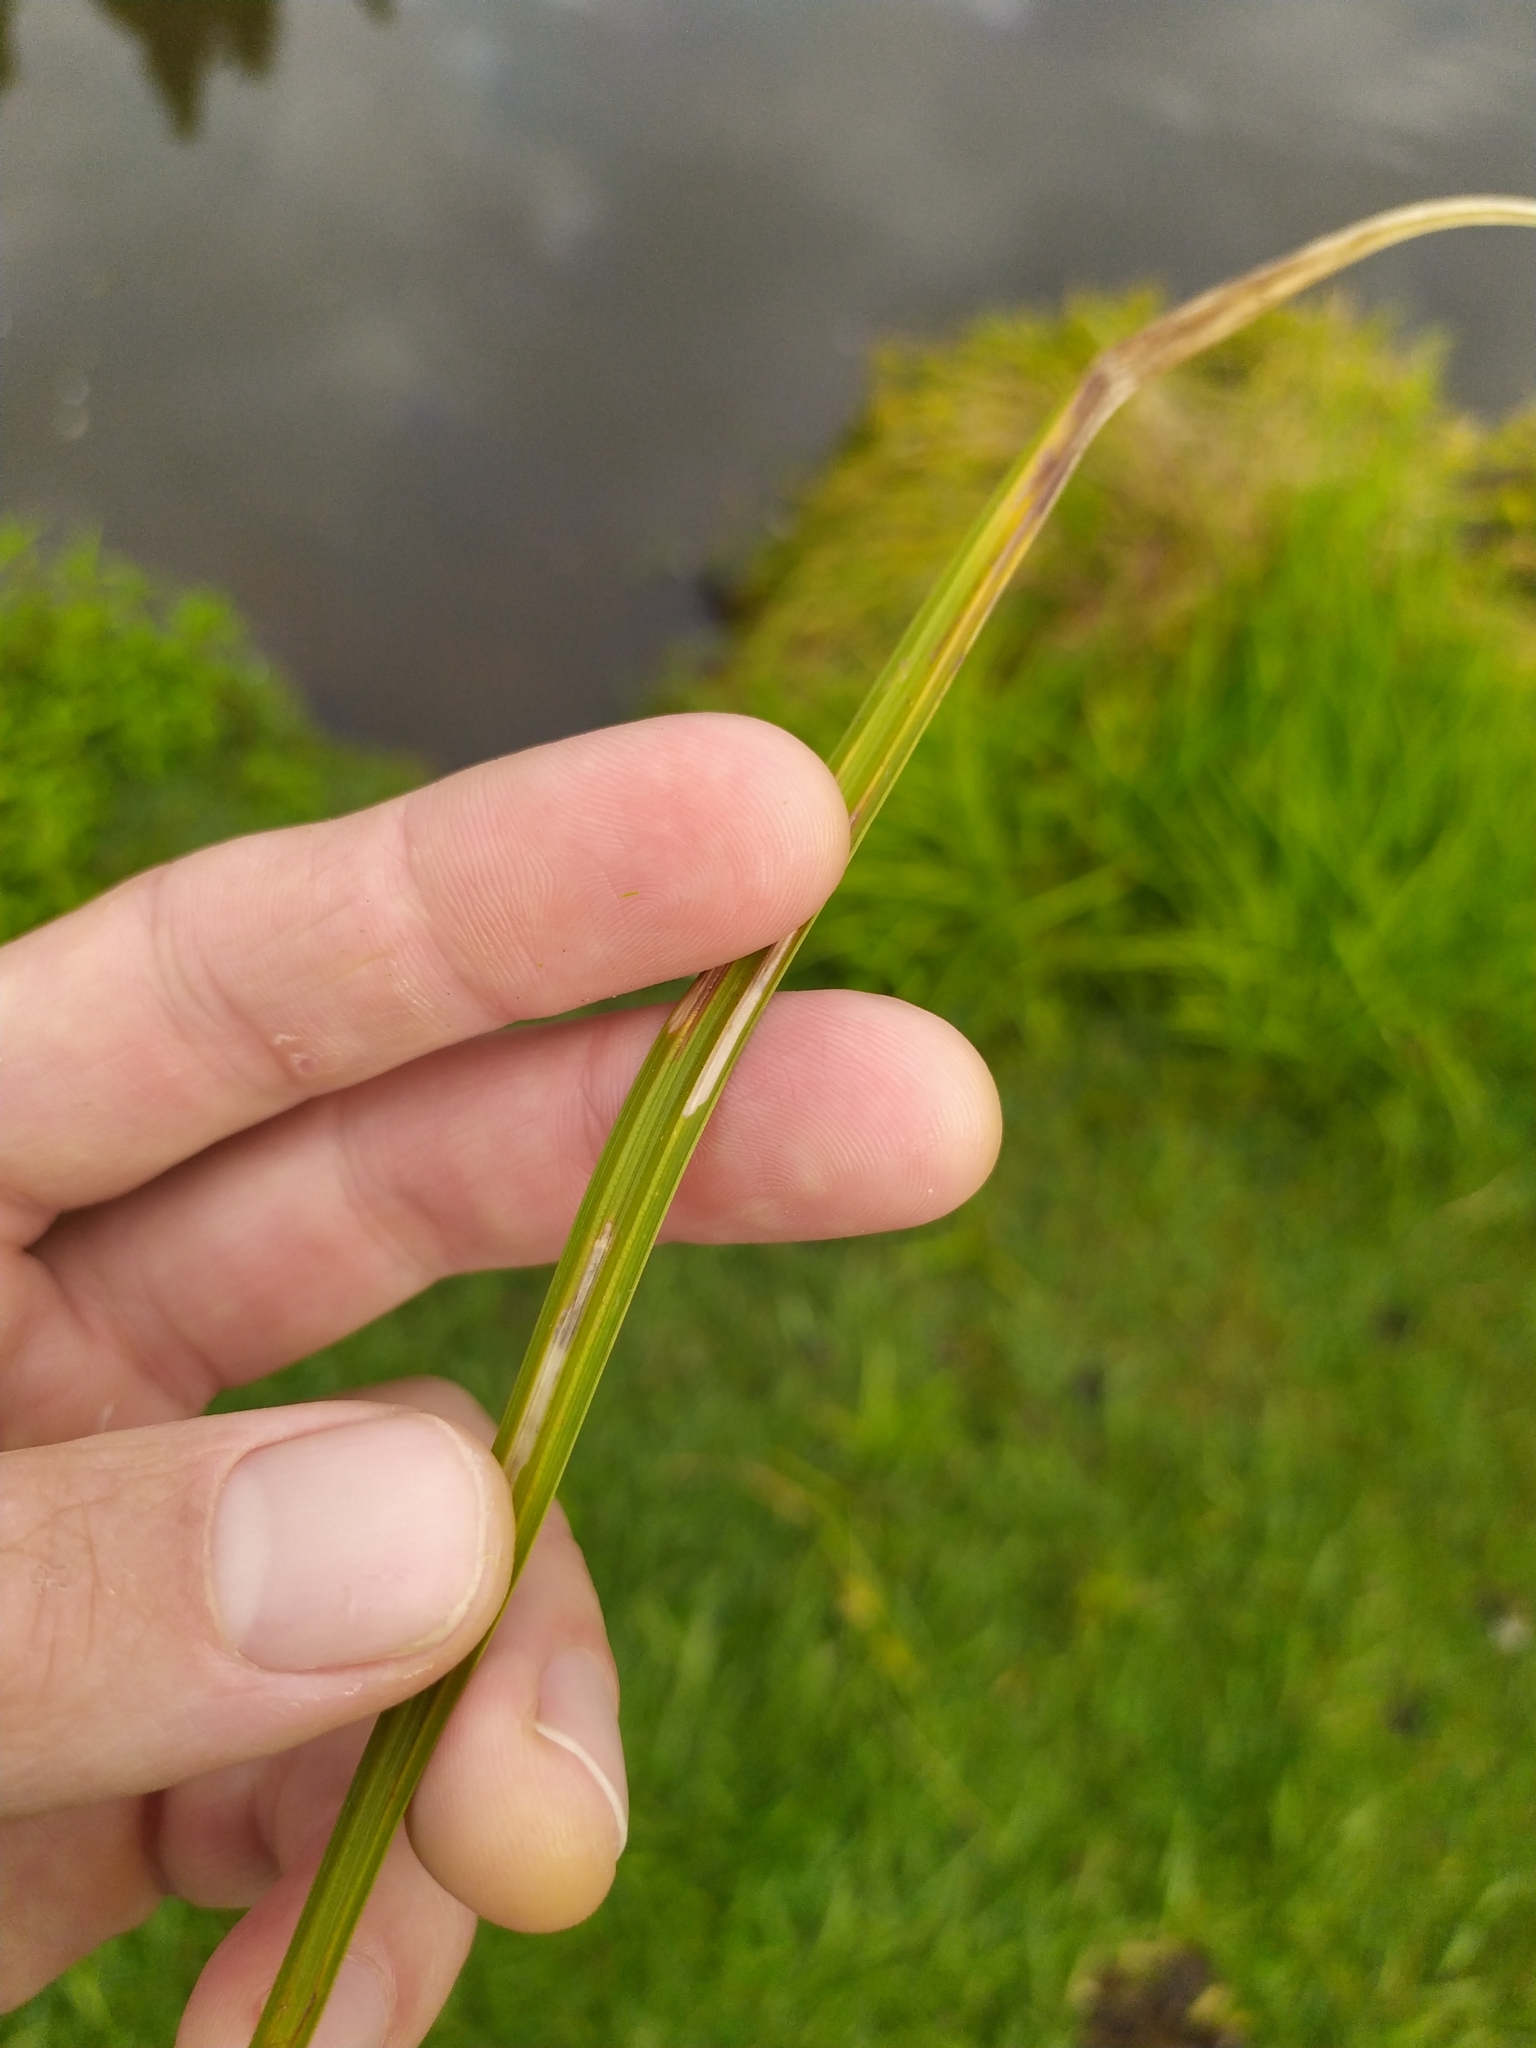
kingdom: Plantae
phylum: Tracheophyta
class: Liliopsida
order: Poales
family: Cyperaceae
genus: Carex
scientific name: Carex lurida
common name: Sallow sedge
